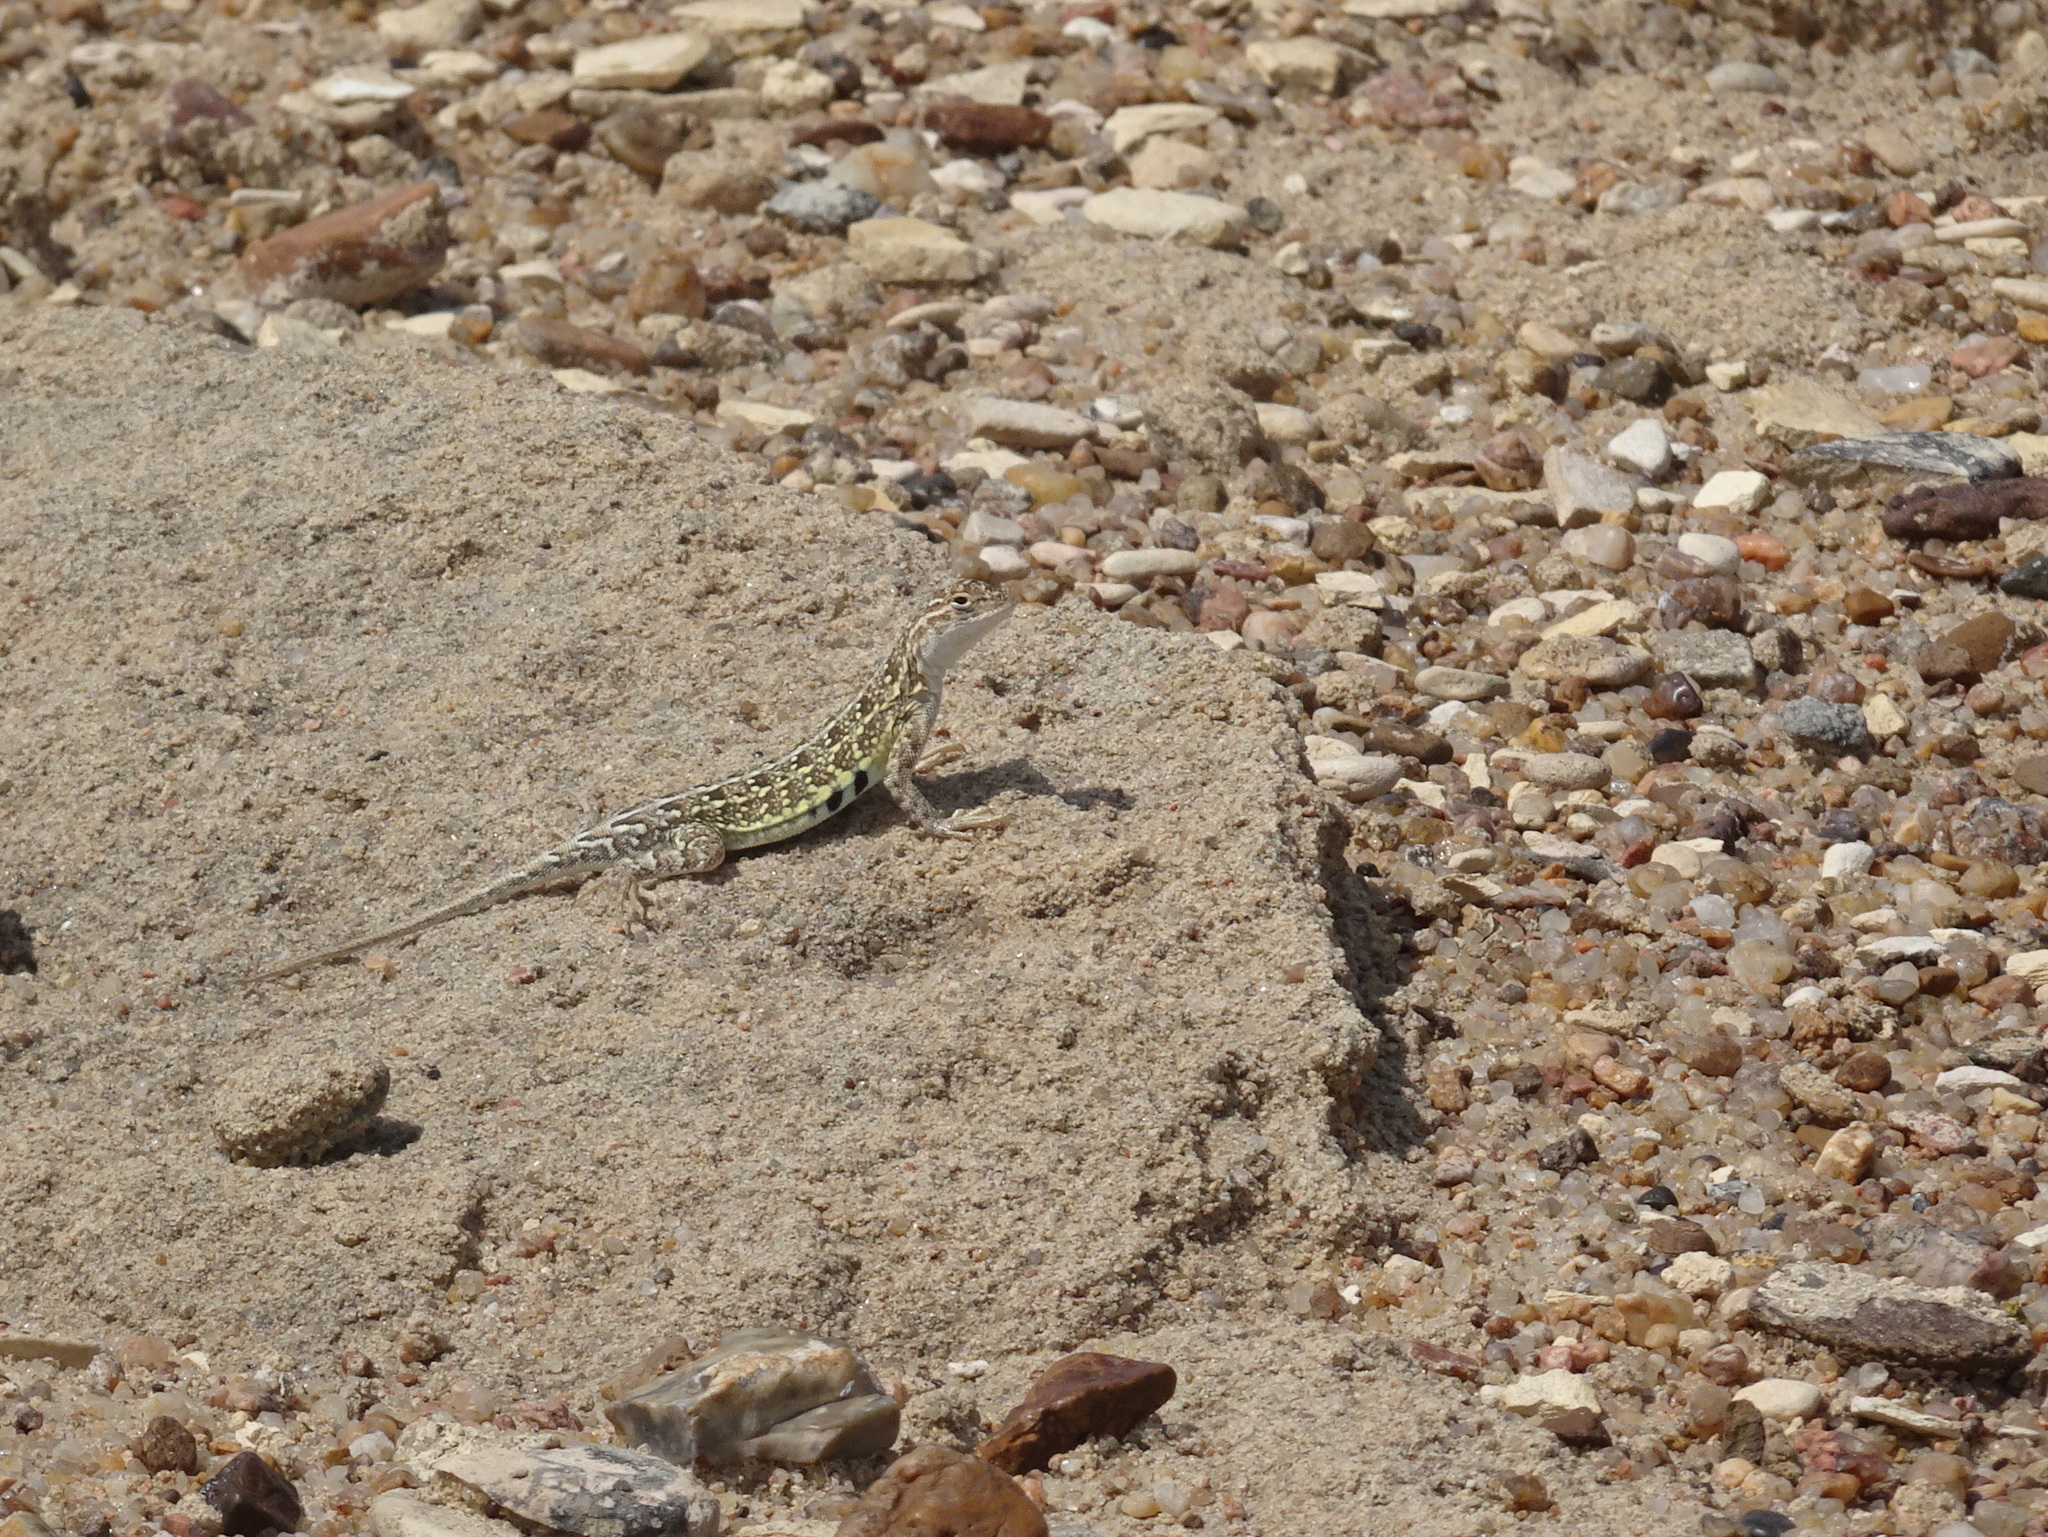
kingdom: Animalia
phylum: Chordata
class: Squamata
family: Phrynosomatidae
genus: Holbrookia
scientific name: Holbrookia maculata
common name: Lesser earless lizard
